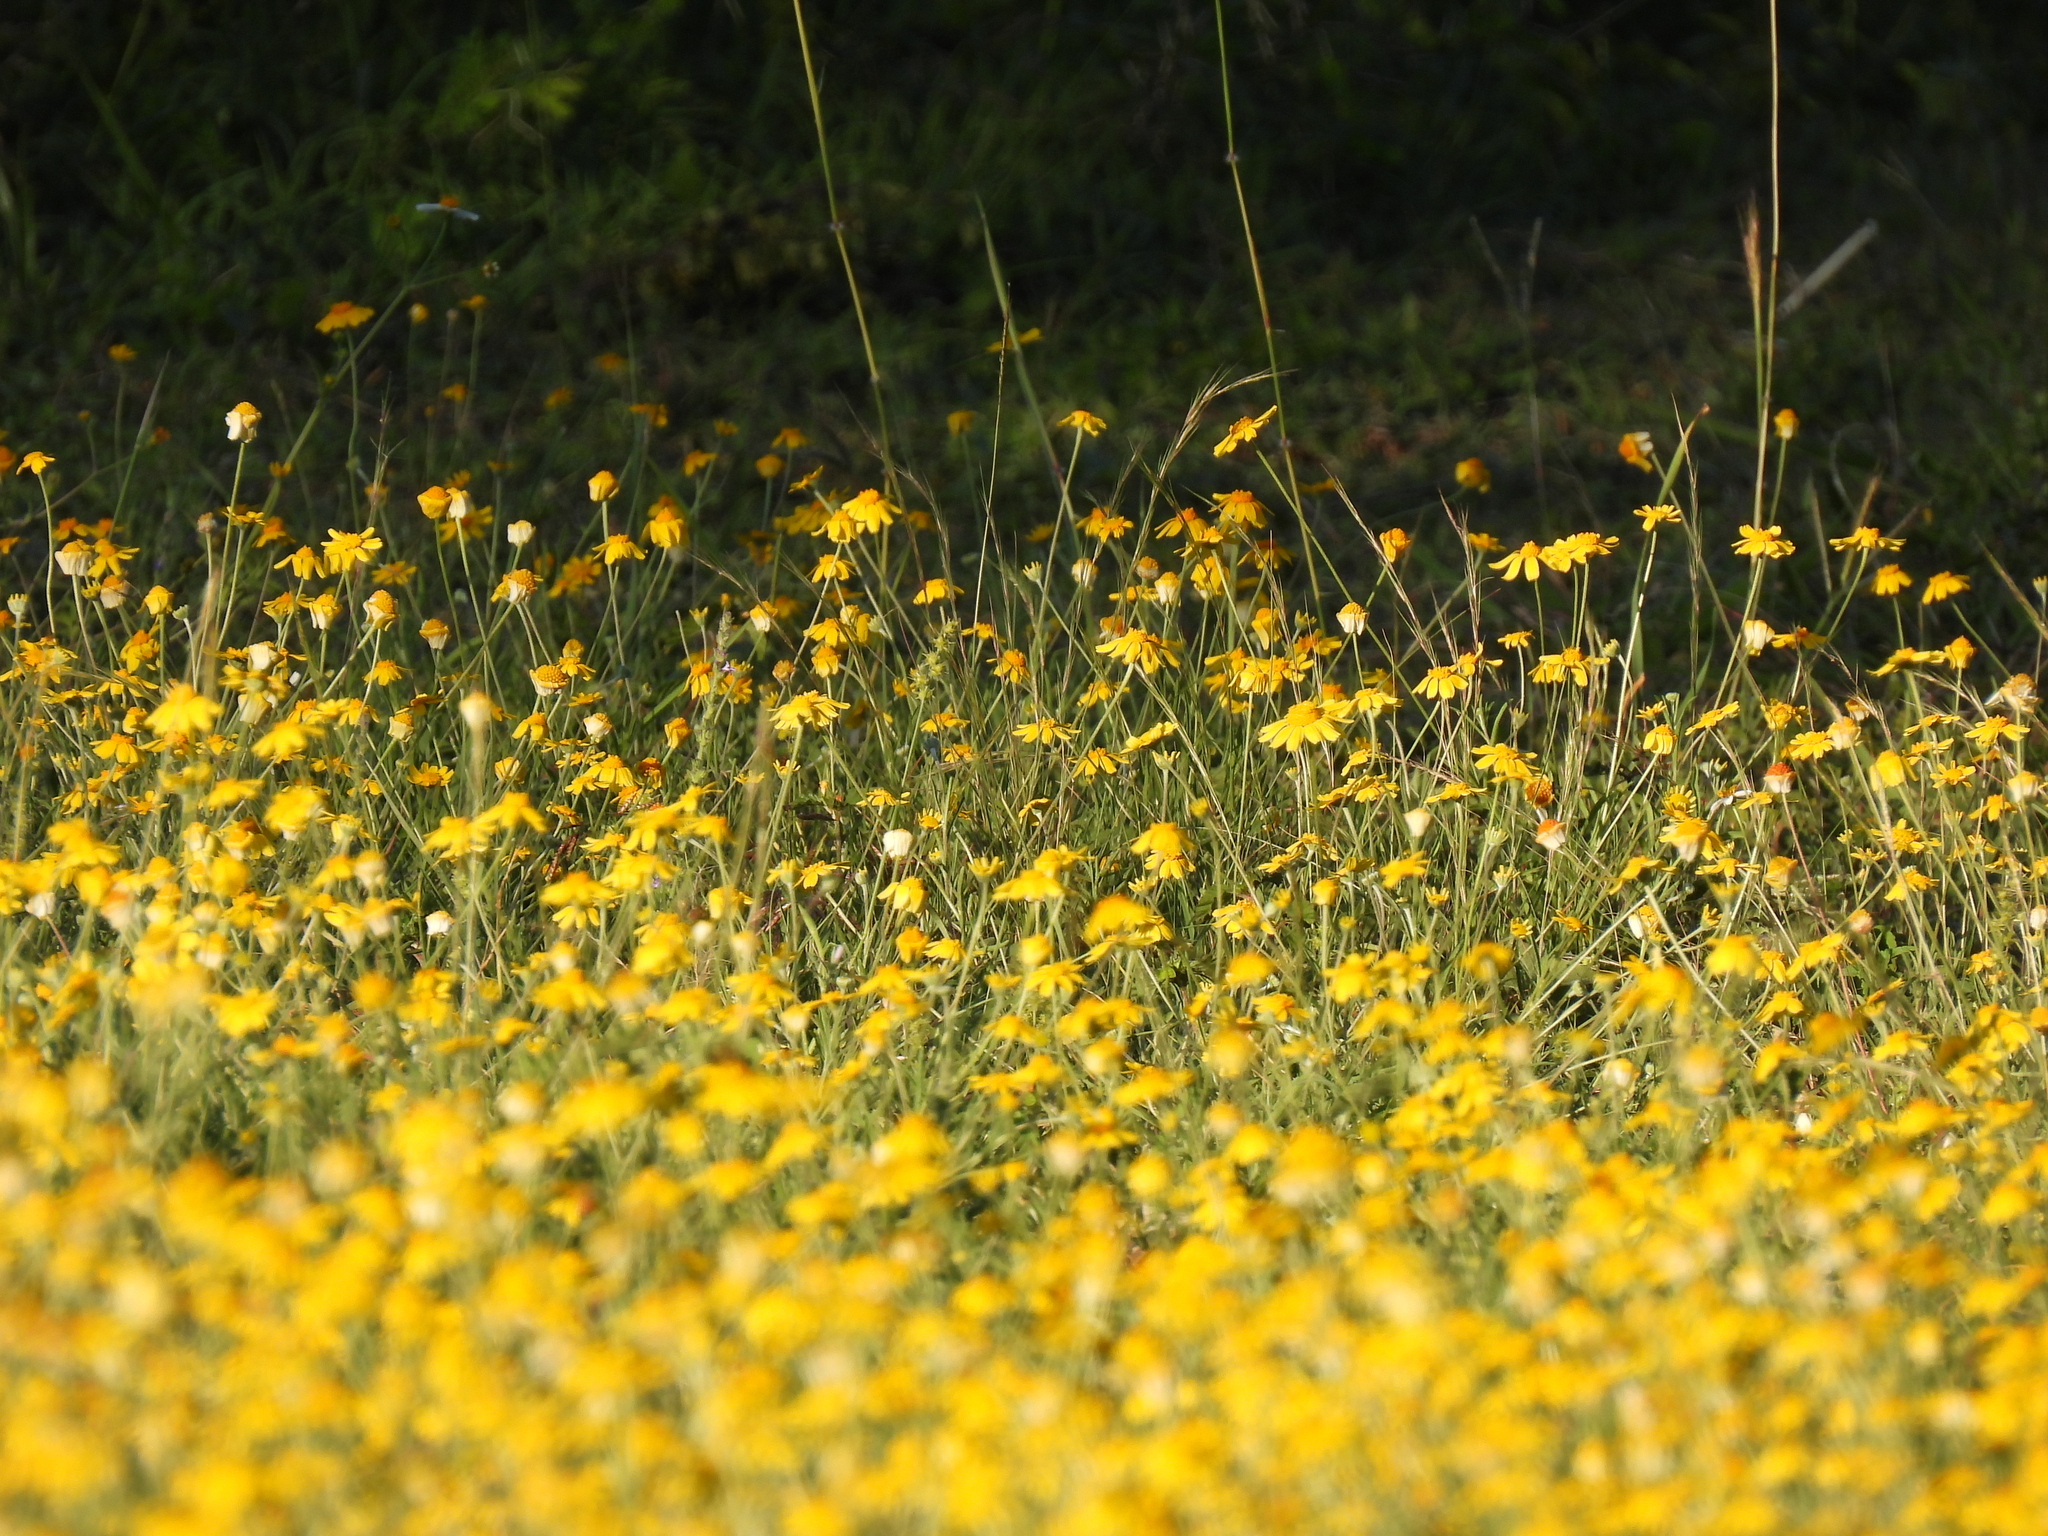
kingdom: Plantae
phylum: Tracheophyta
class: Magnoliopsida
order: Asterales
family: Asteraceae
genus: Tetraneuris
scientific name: Tetraneuris linearifolia
